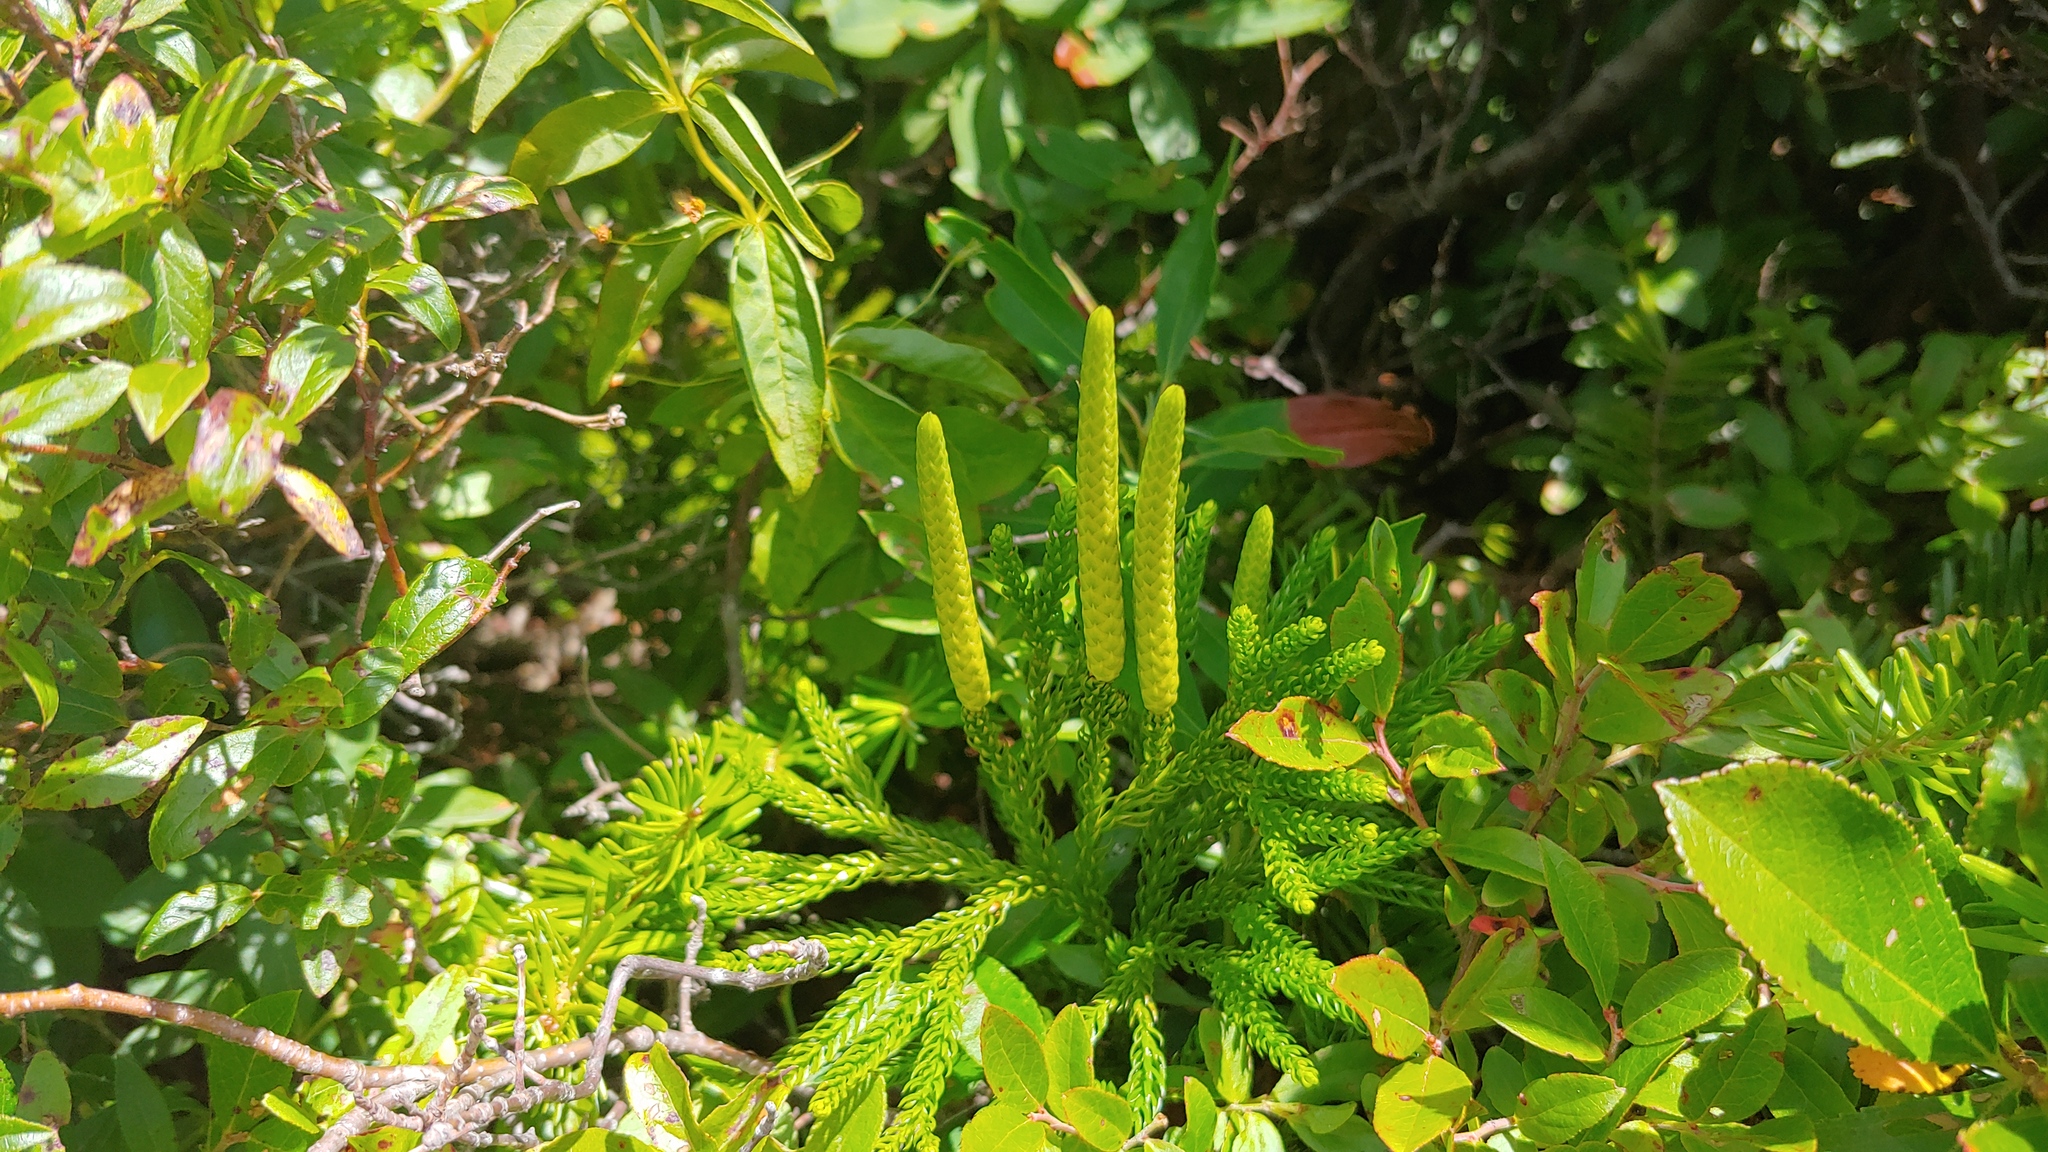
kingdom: Plantae
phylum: Tracheophyta
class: Lycopodiopsida
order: Lycopodiales
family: Lycopodiaceae
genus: Dendrolycopodium
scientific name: Dendrolycopodium hickeyi
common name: Hickey's clubmoss
